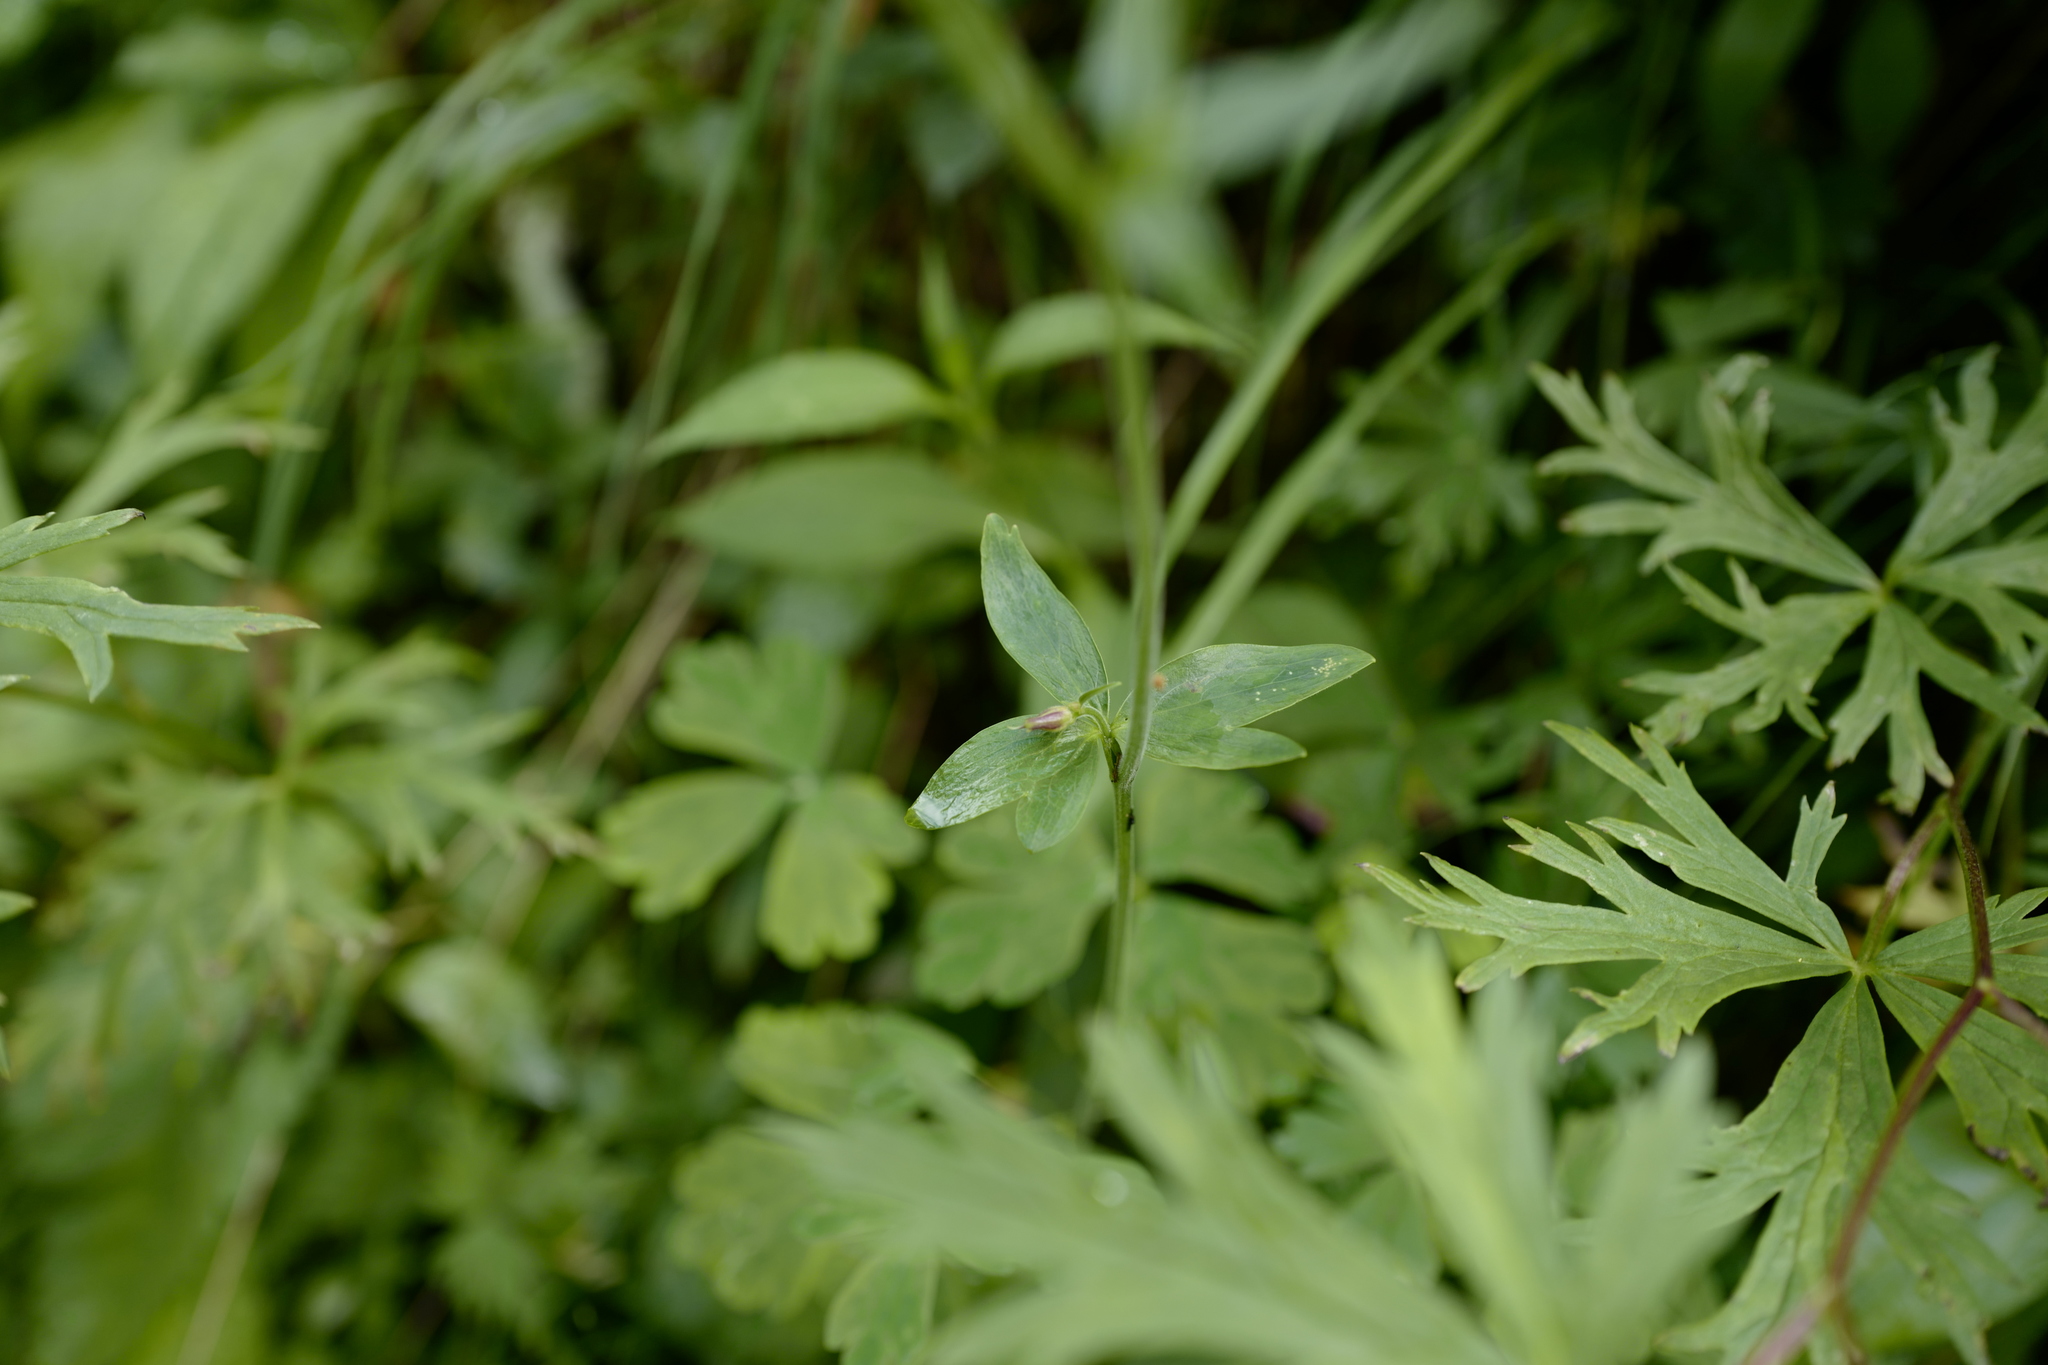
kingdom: Plantae
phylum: Tracheophyta
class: Magnoliopsida
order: Ranunculales
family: Ranunculaceae
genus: Aquilegia
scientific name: Aquilegia atrata
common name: Dark columbine
